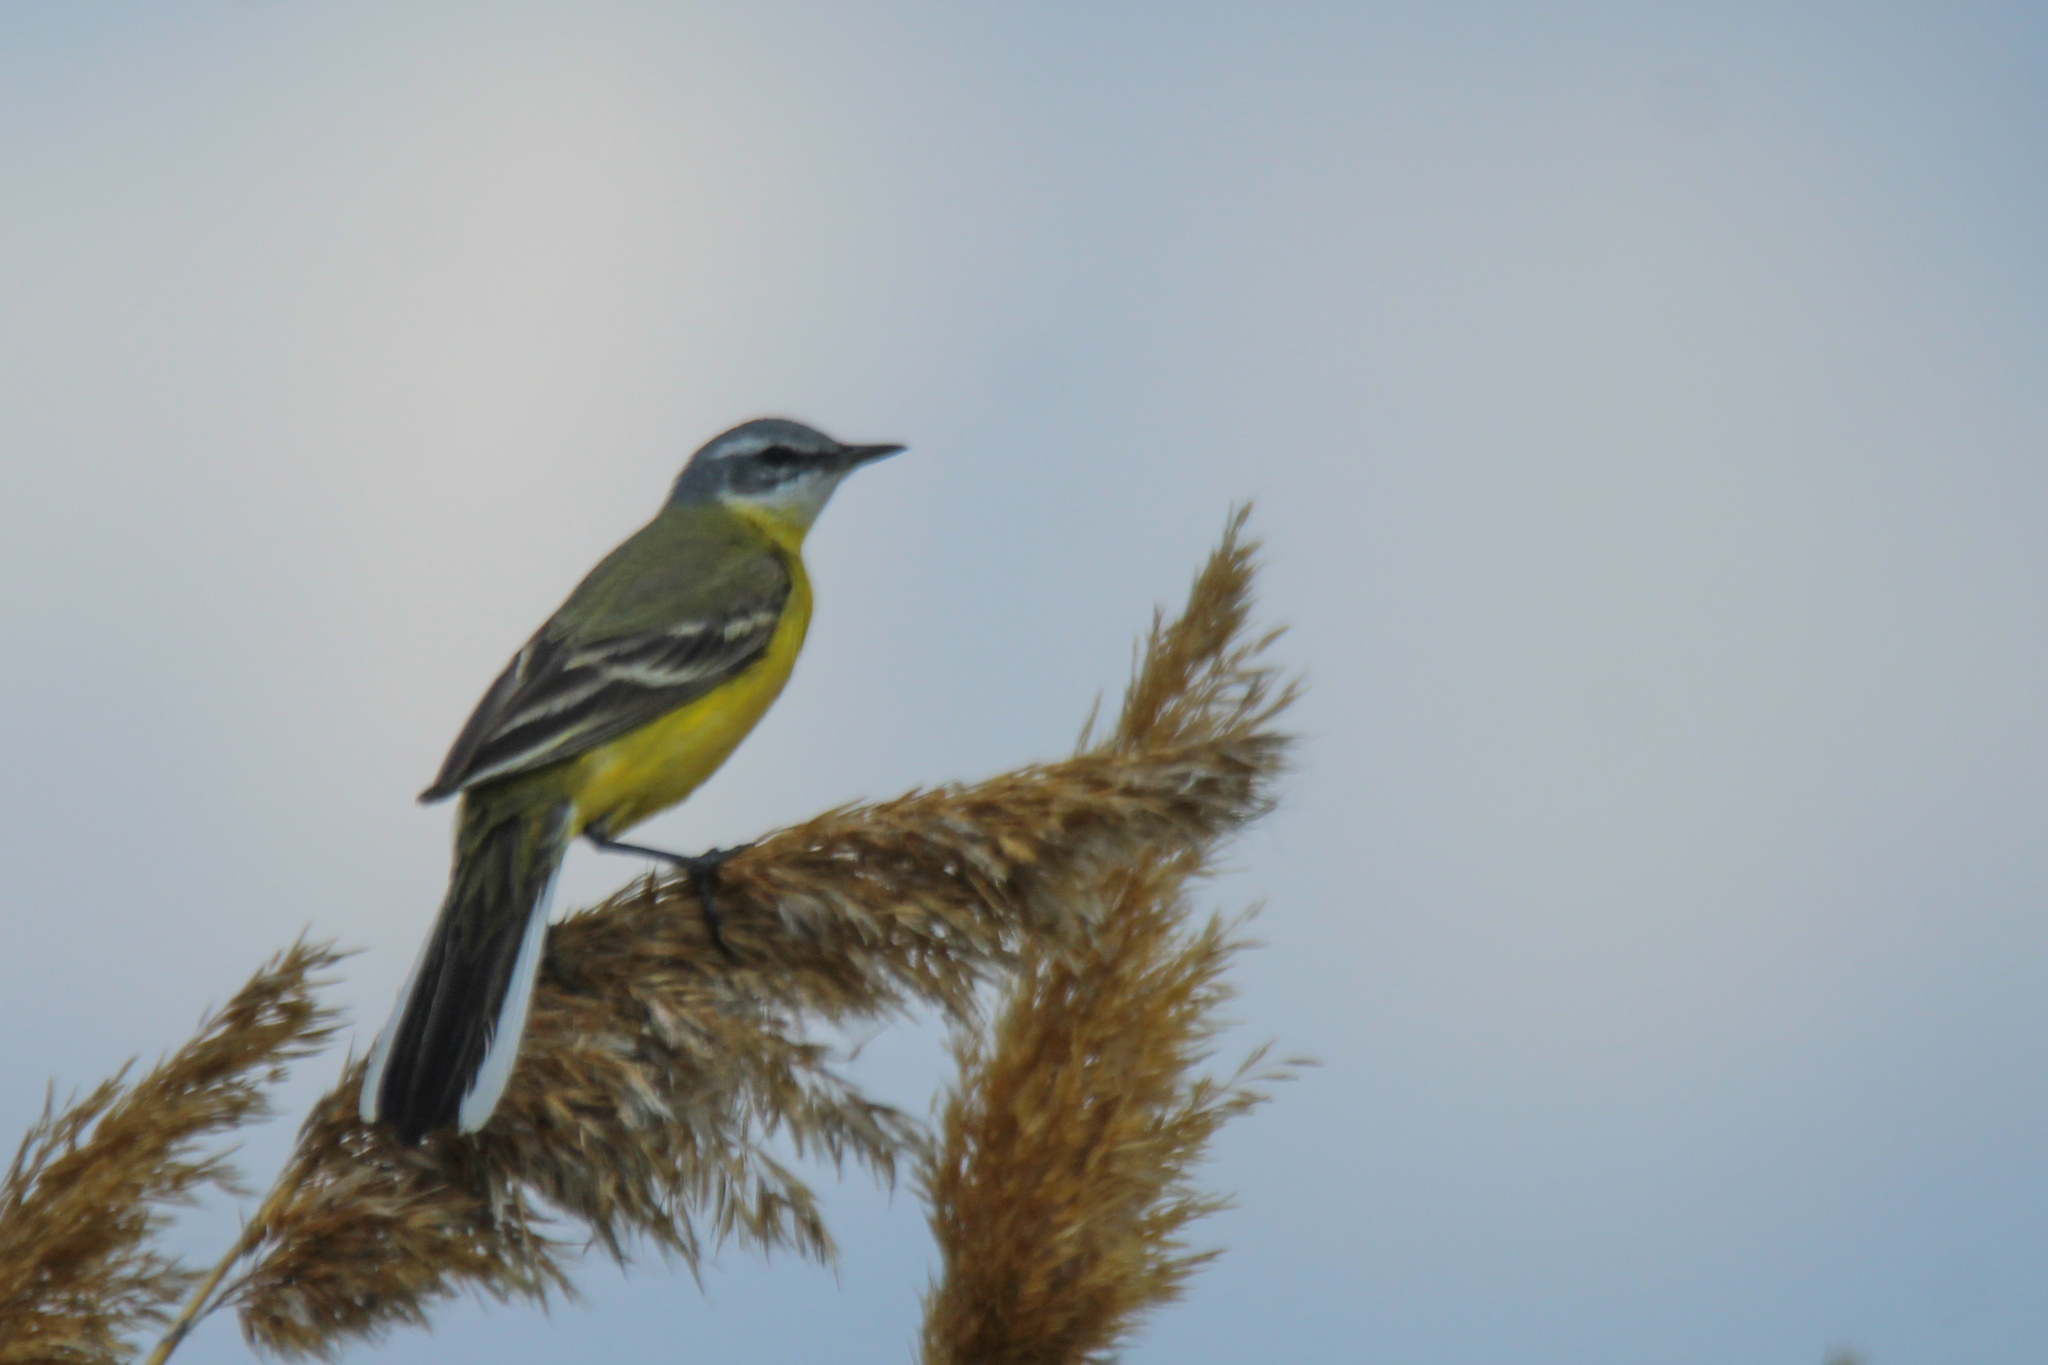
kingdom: Animalia
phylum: Chordata
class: Aves
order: Passeriformes
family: Motacillidae
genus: Motacilla
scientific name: Motacilla flava
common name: Western yellow wagtail
